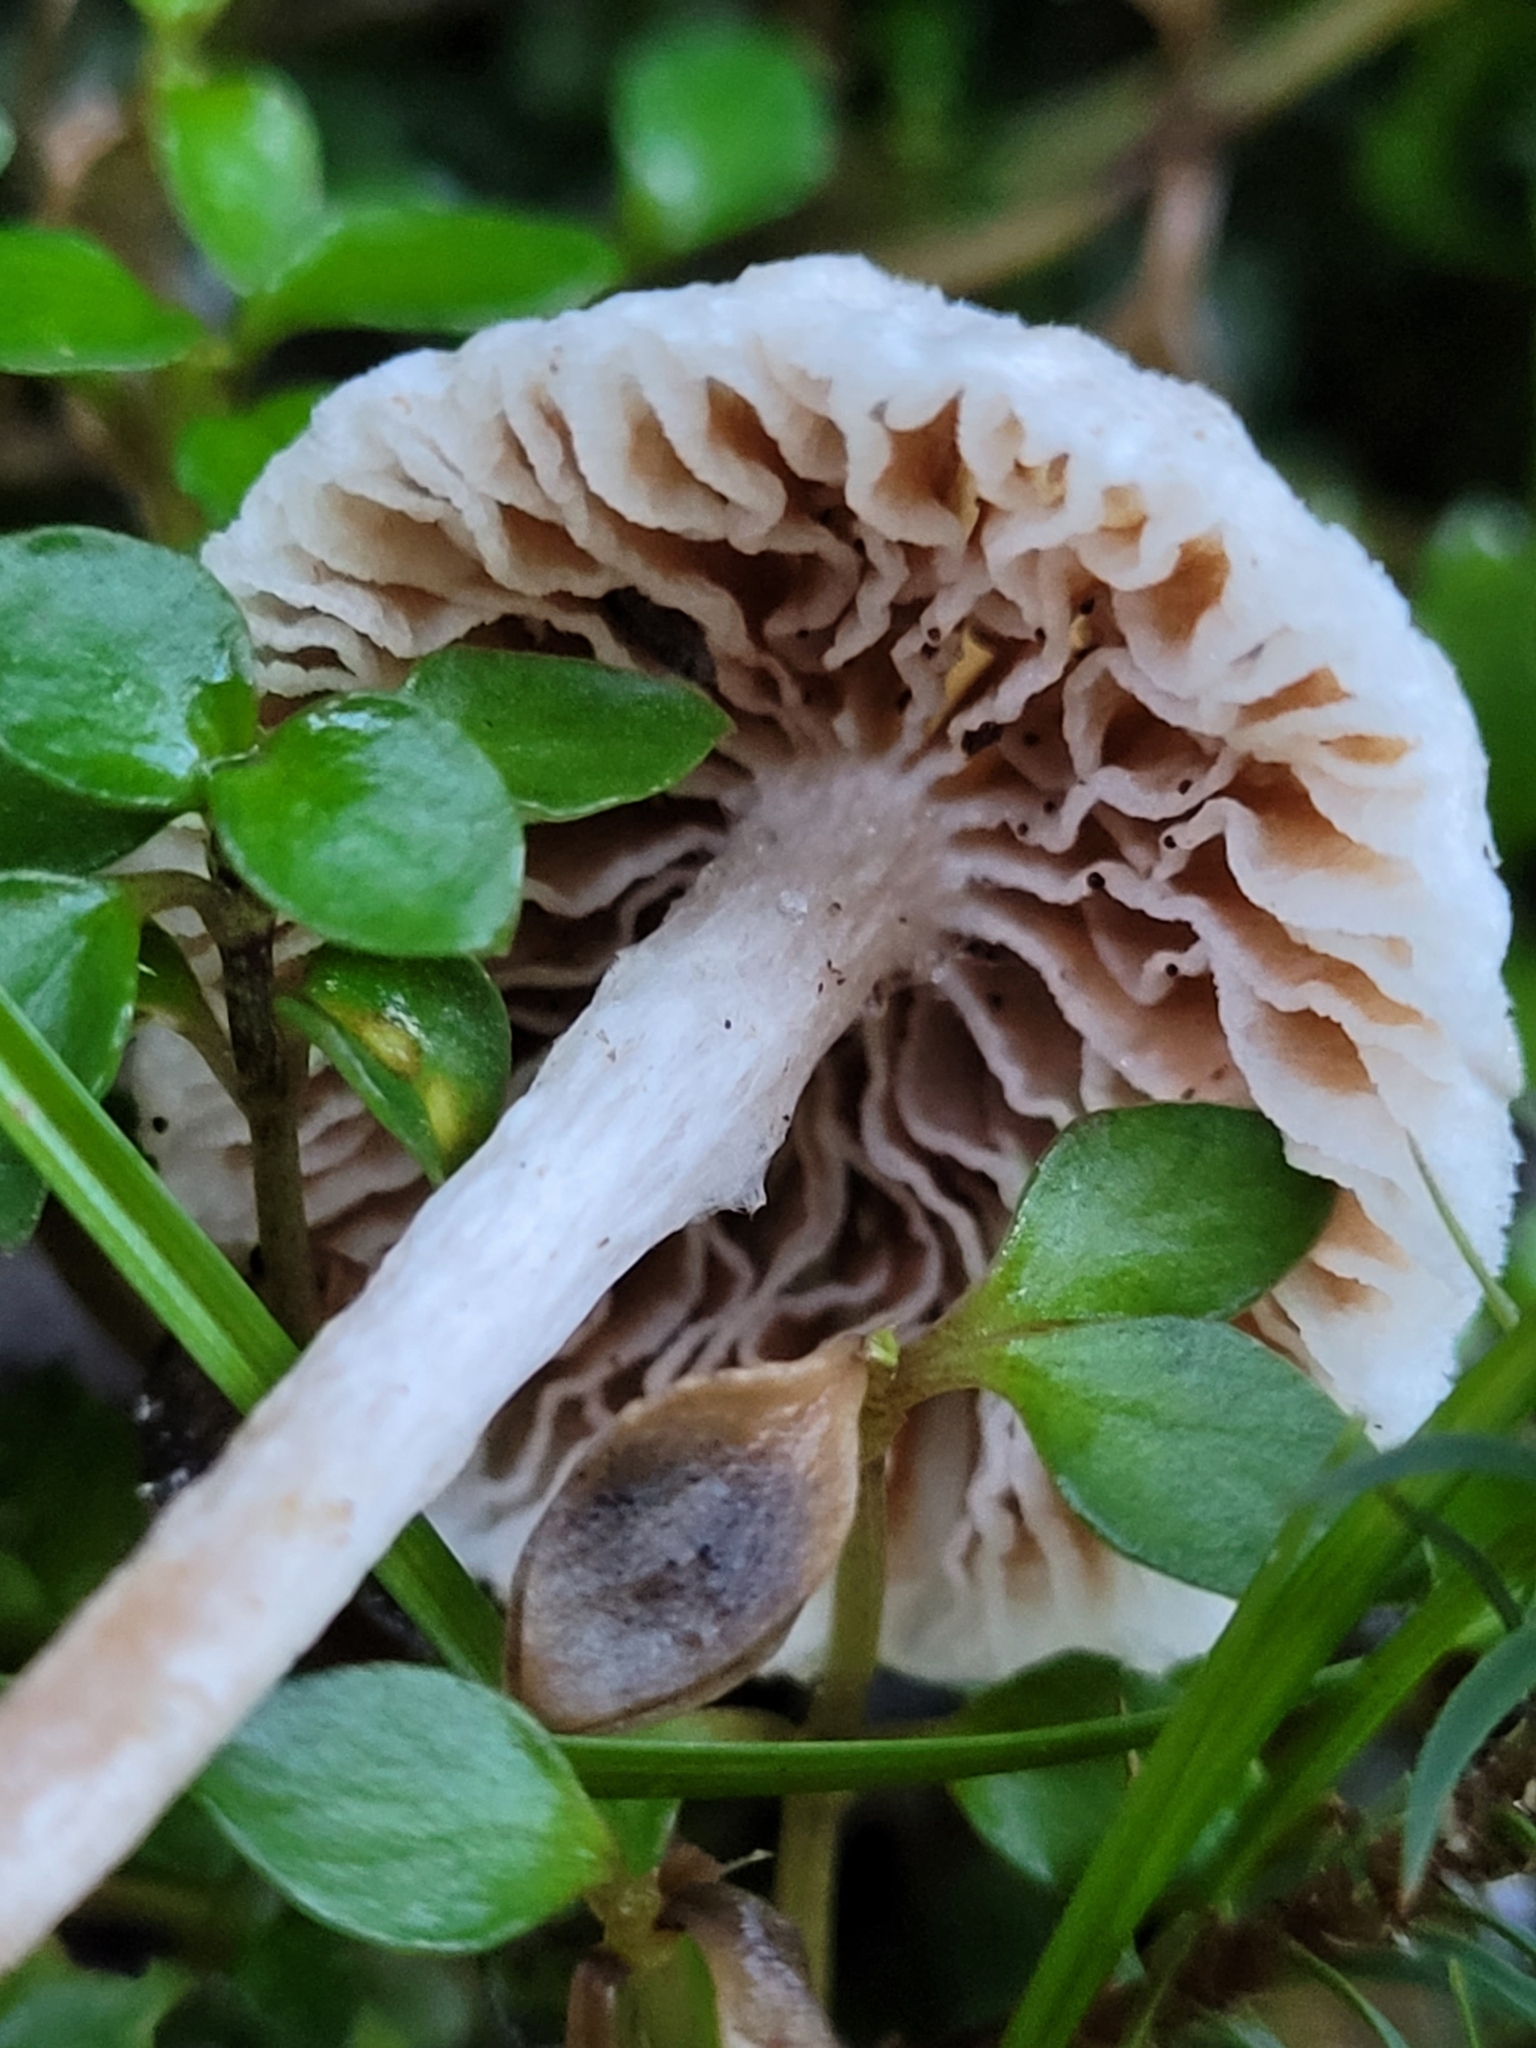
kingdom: Fungi
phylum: Basidiomycota
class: Agaricomycetes
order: Agaricales
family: Bolbitiaceae
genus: Tympanella
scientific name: Tympanella galanthina
